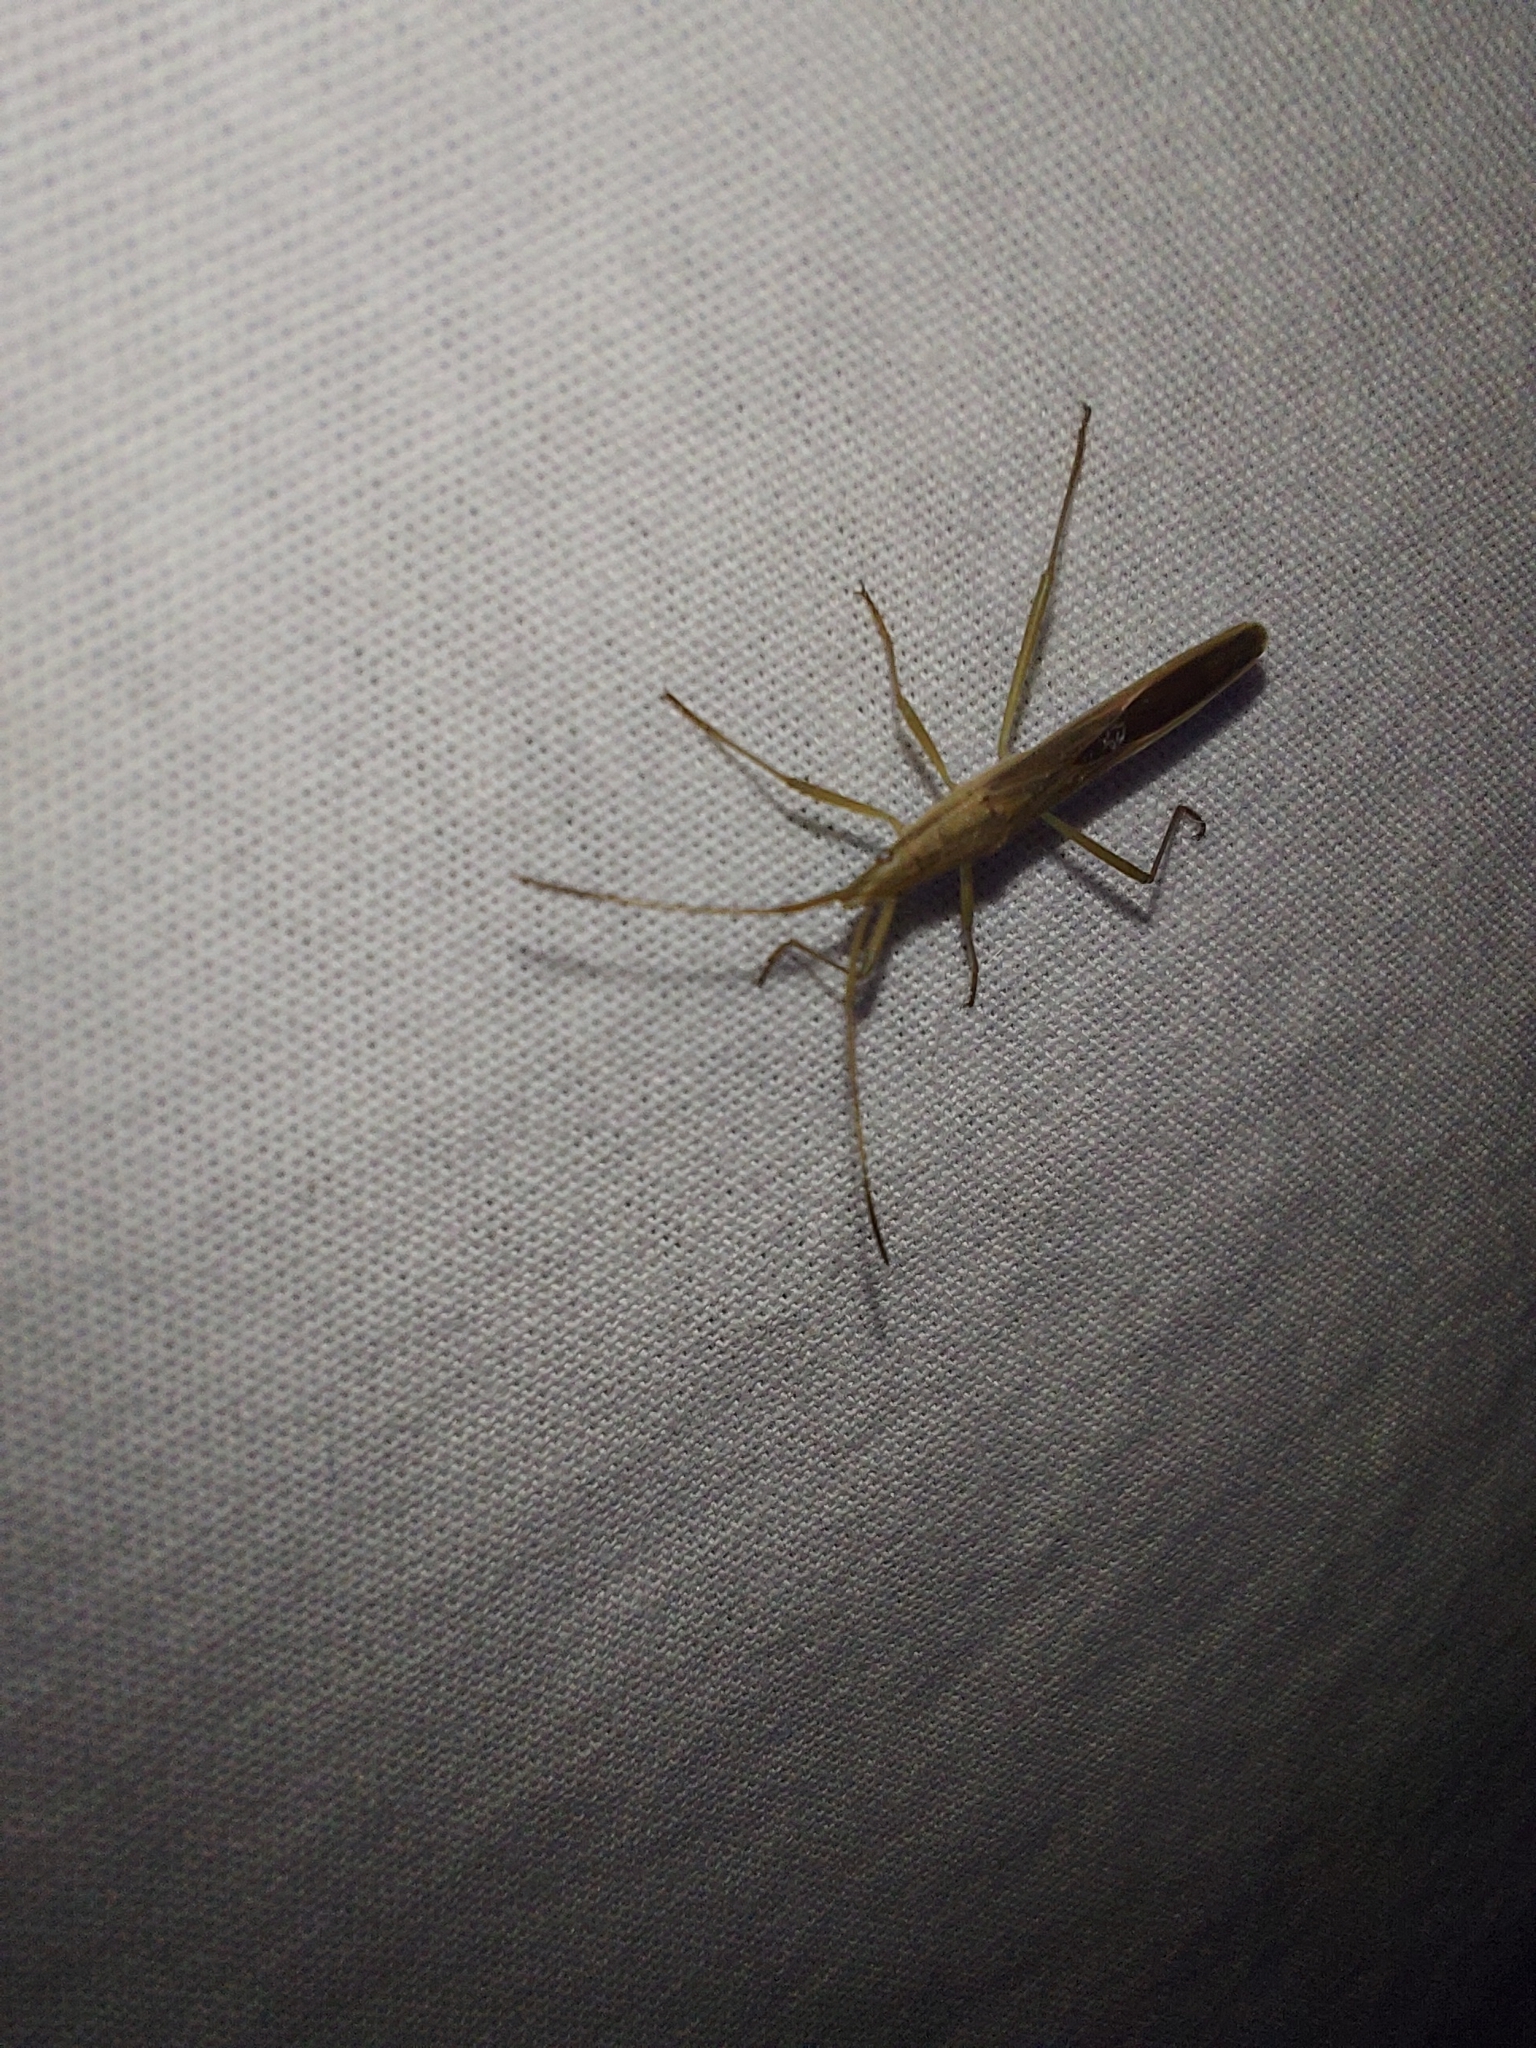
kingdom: Animalia
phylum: Arthropoda
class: Insecta
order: Hemiptera
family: Alydidae
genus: Mutusca
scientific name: Mutusca brevicornis
